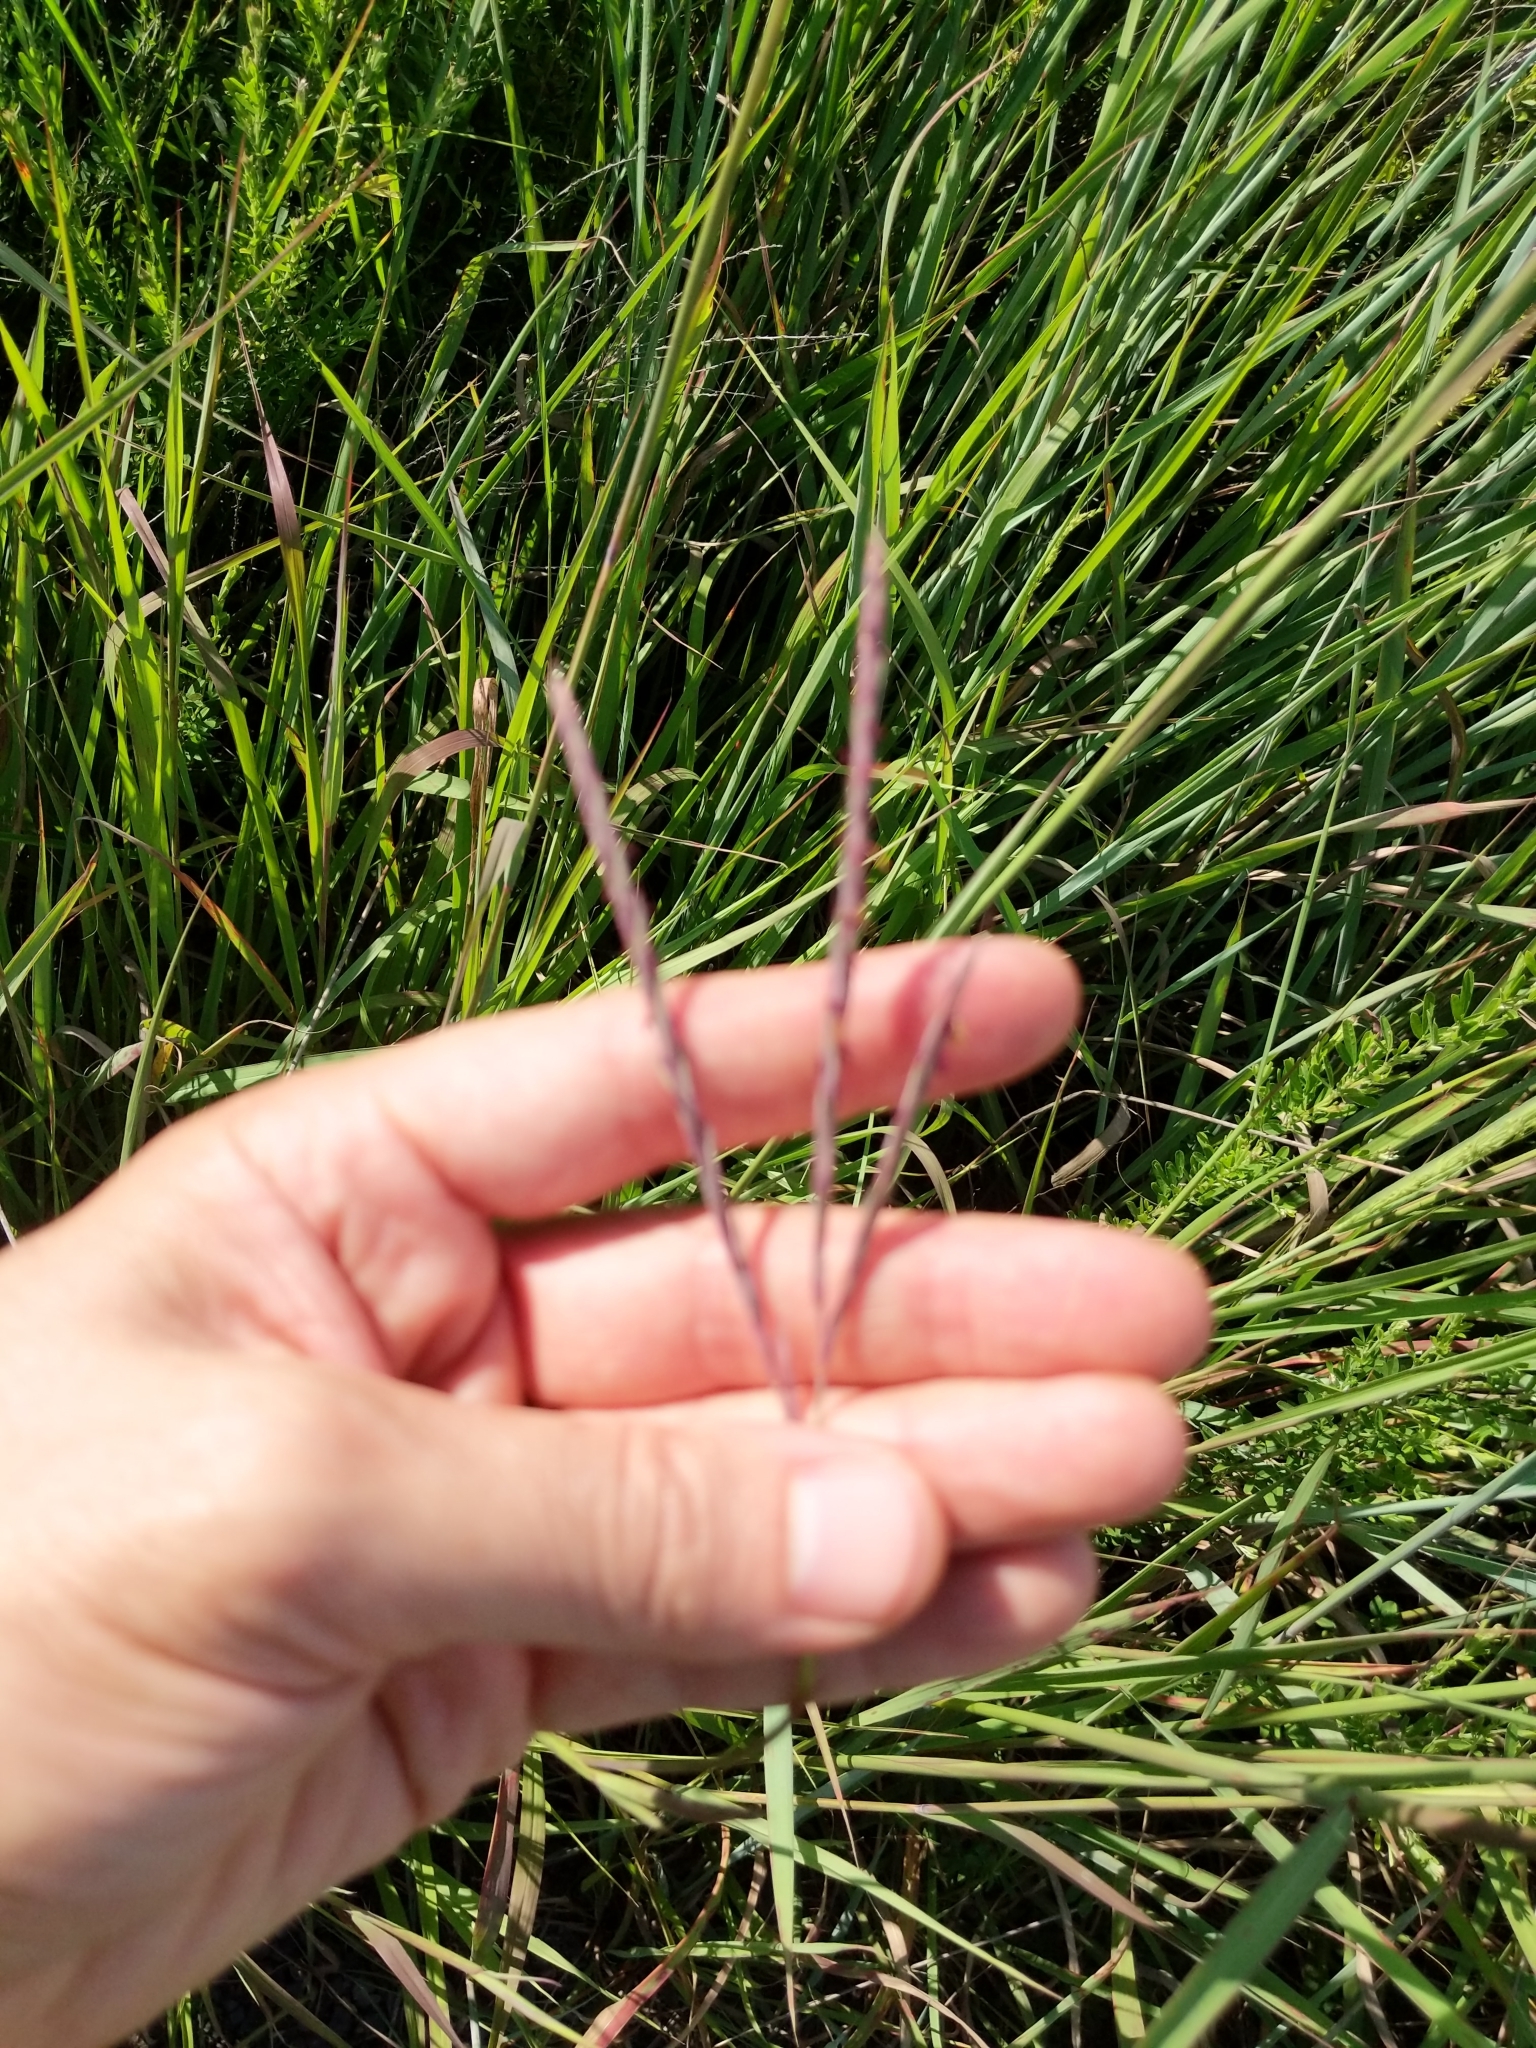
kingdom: Plantae
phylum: Tracheophyta
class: Liliopsida
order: Poales
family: Poaceae
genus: Andropogon
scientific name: Andropogon gerardi
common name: Big bluestem
